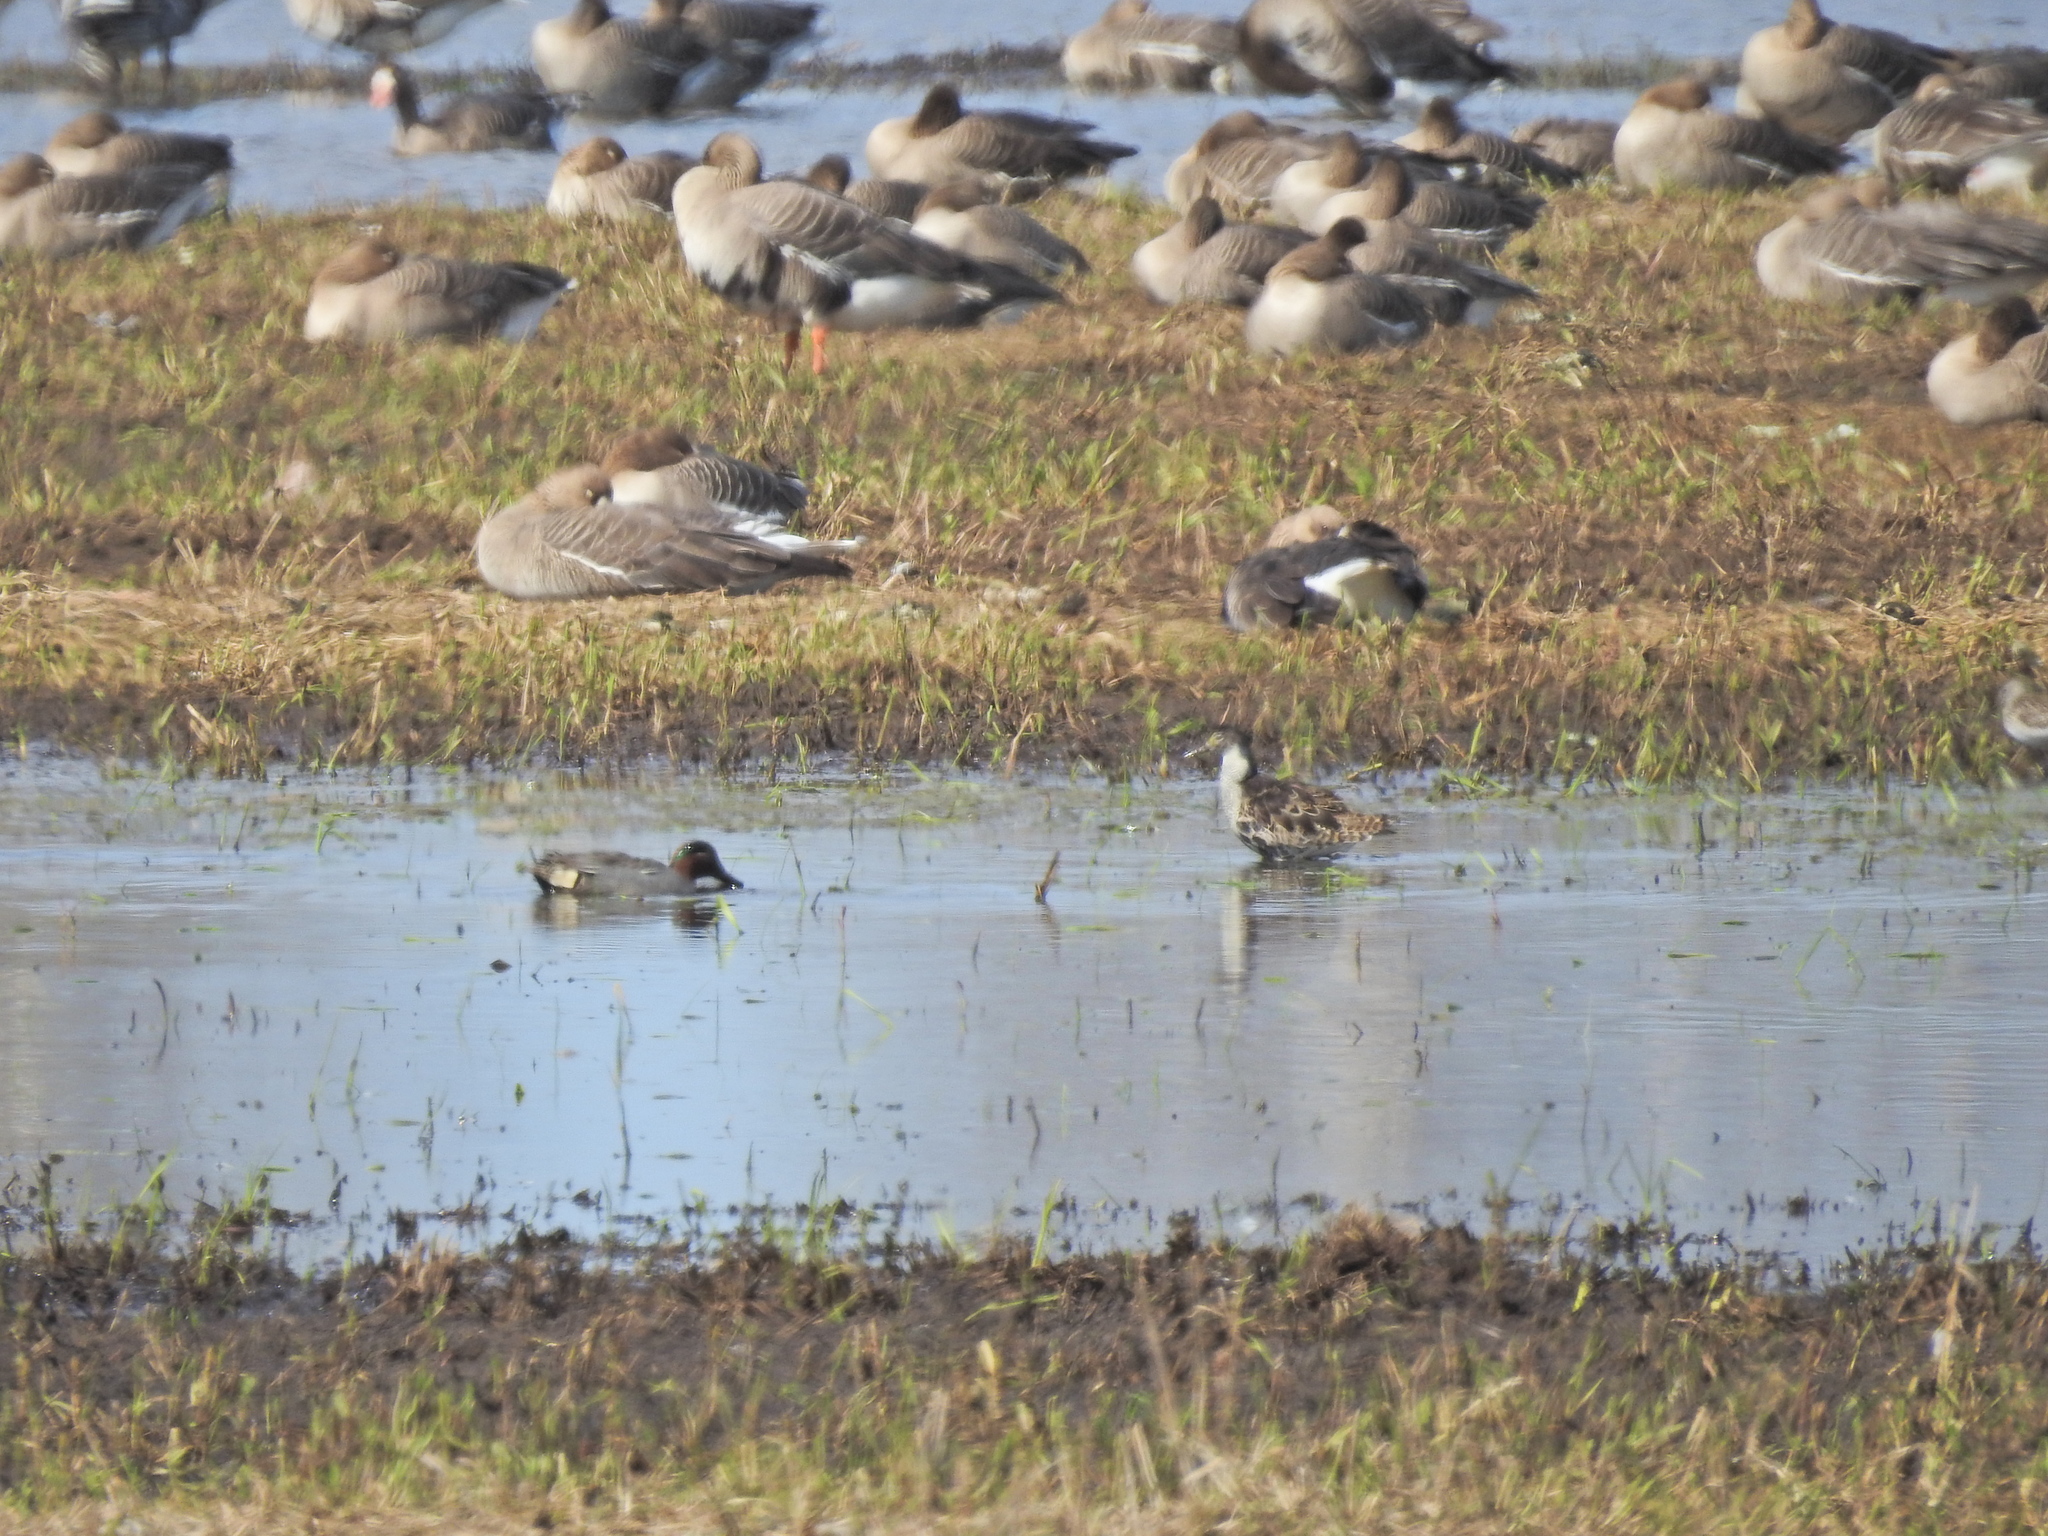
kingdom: Animalia
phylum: Chordata
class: Aves
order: Anseriformes
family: Anatidae
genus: Anas
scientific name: Anas crecca
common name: Eurasian teal
